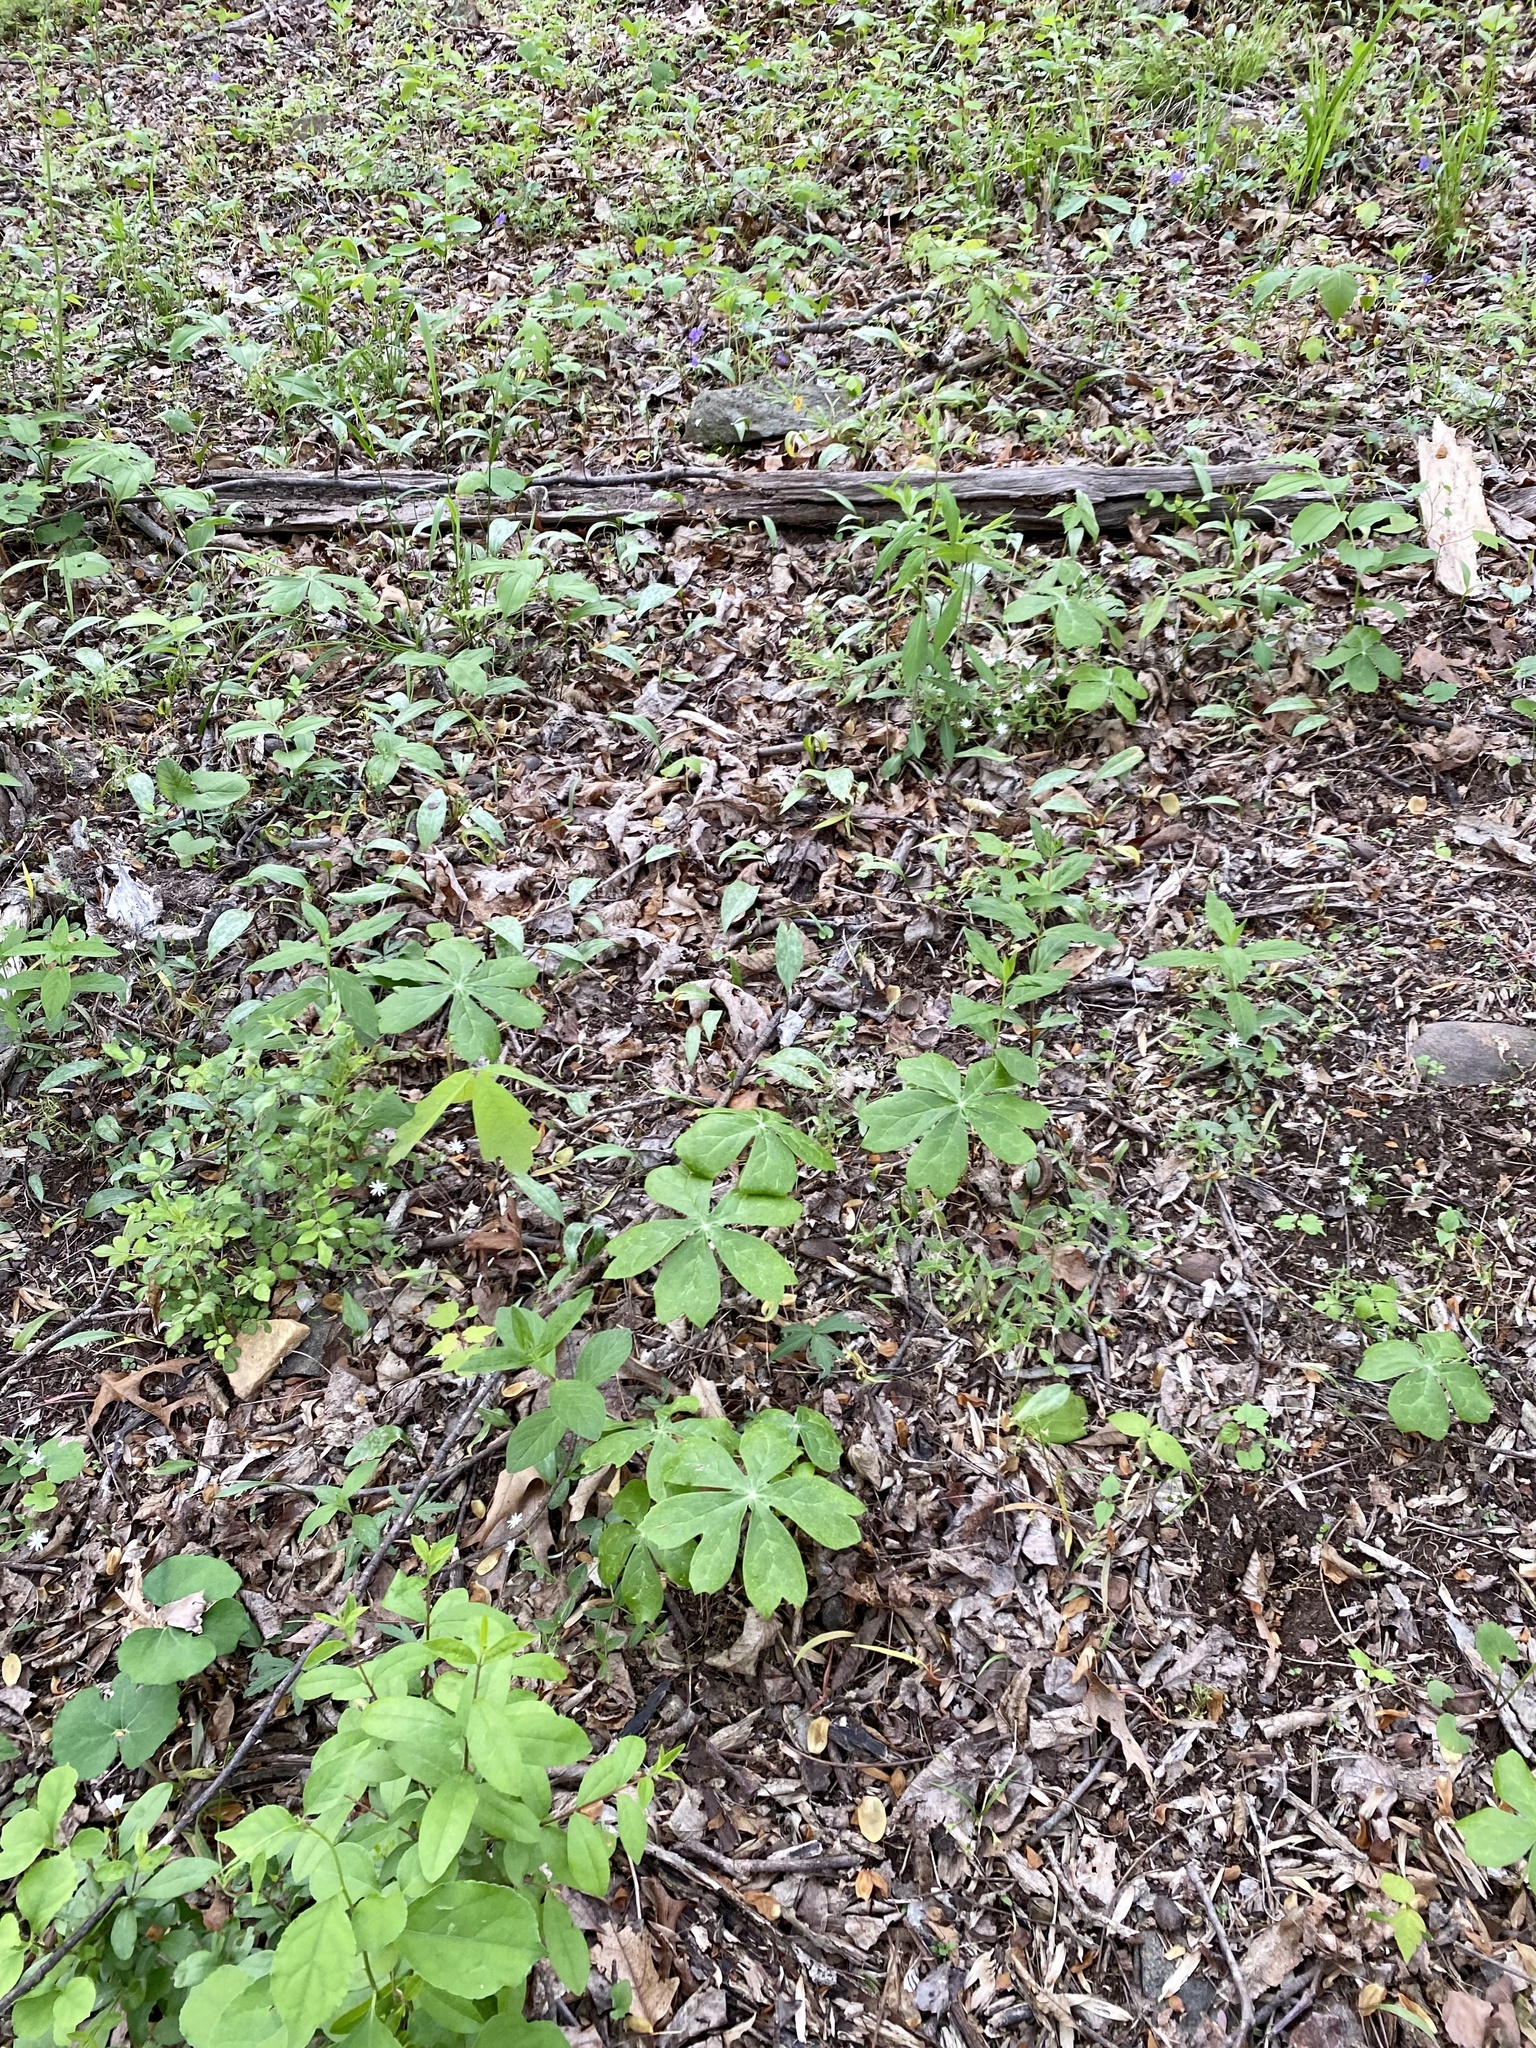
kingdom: Plantae
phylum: Tracheophyta
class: Magnoliopsida
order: Ranunculales
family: Berberidaceae
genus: Podophyllum
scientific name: Podophyllum peltatum
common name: Wild mandrake
